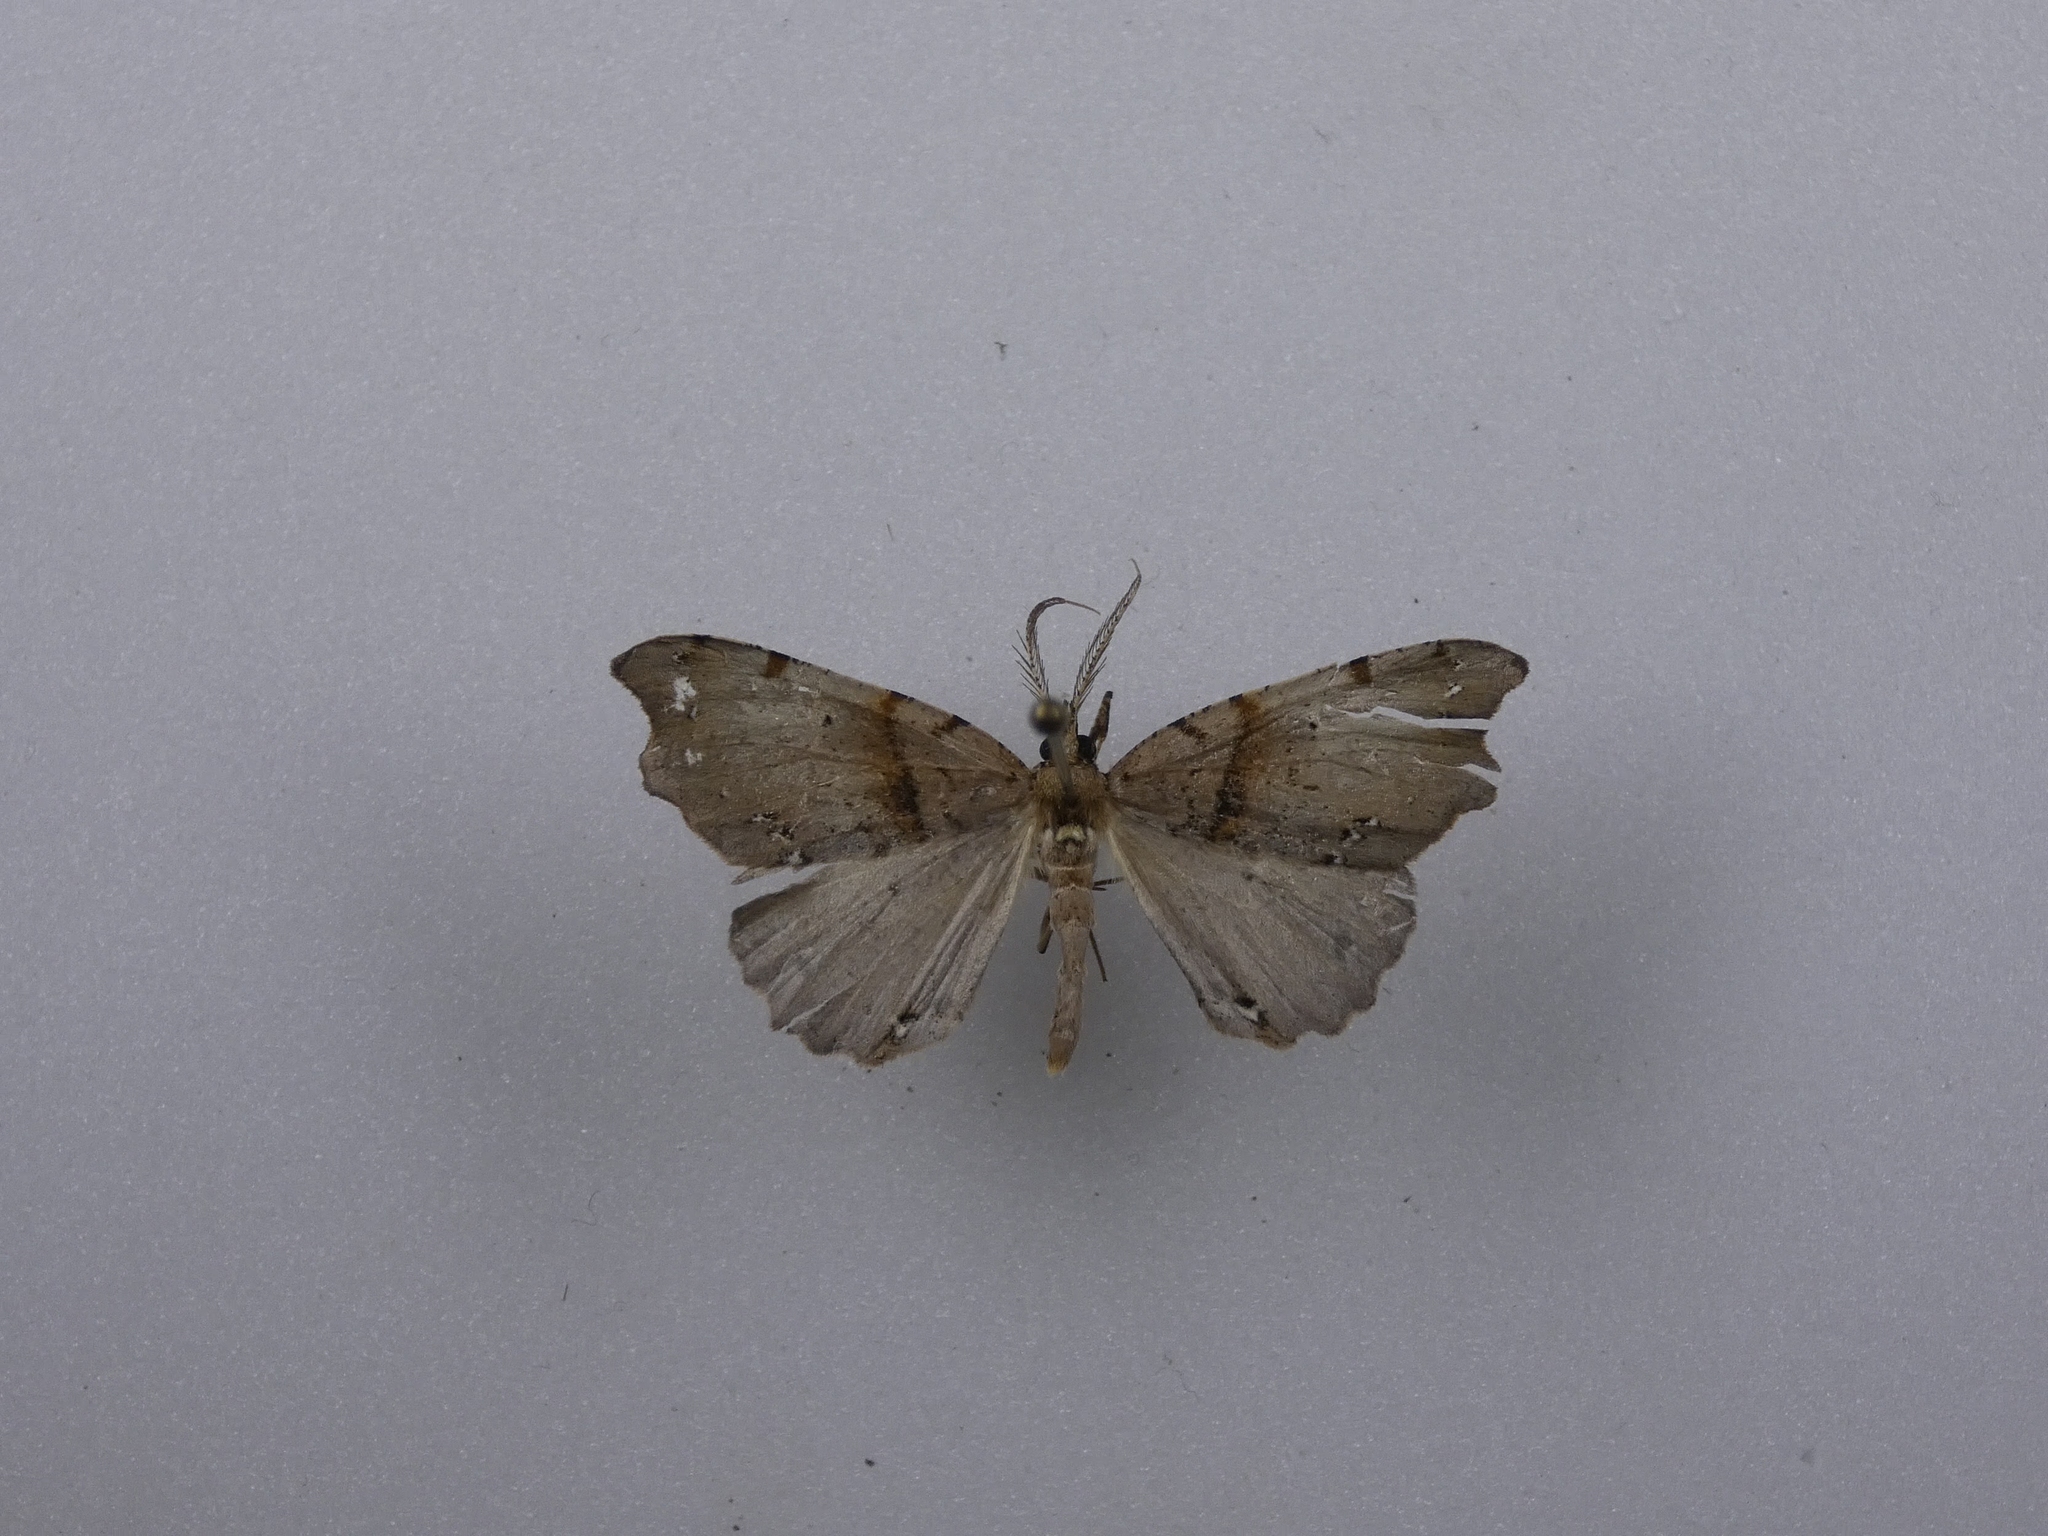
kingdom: Animalia
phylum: Arthropoda
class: Insecta
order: Lepidoptera
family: Geometridae
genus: Chalastra
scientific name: Chalastra pellurgata
